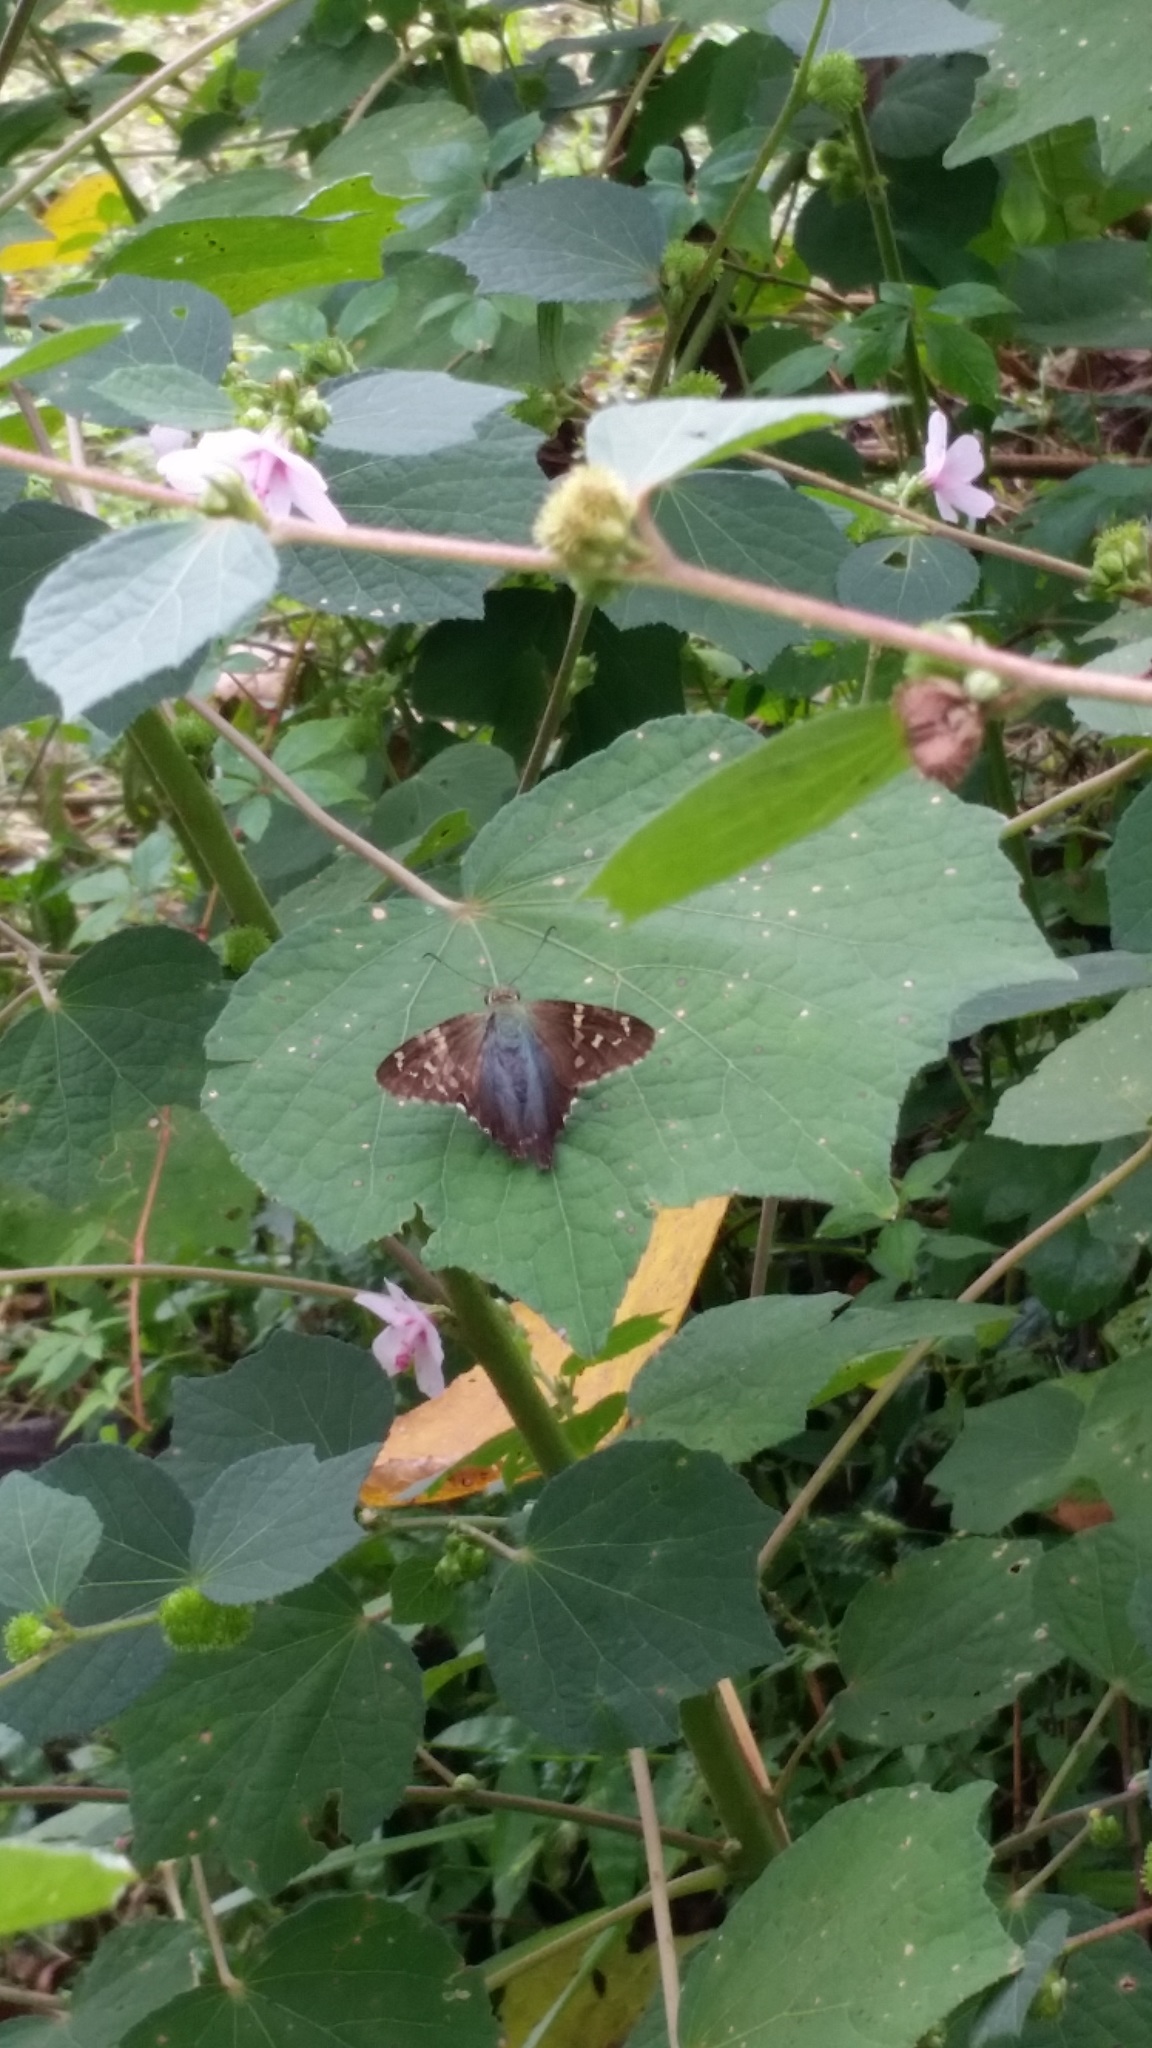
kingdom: Animalia
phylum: Arthropoda
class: Insecta
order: Lepidoptera
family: Hesperiidae
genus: Urbanus
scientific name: Urbanus proteus
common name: Long-tailed skipper
